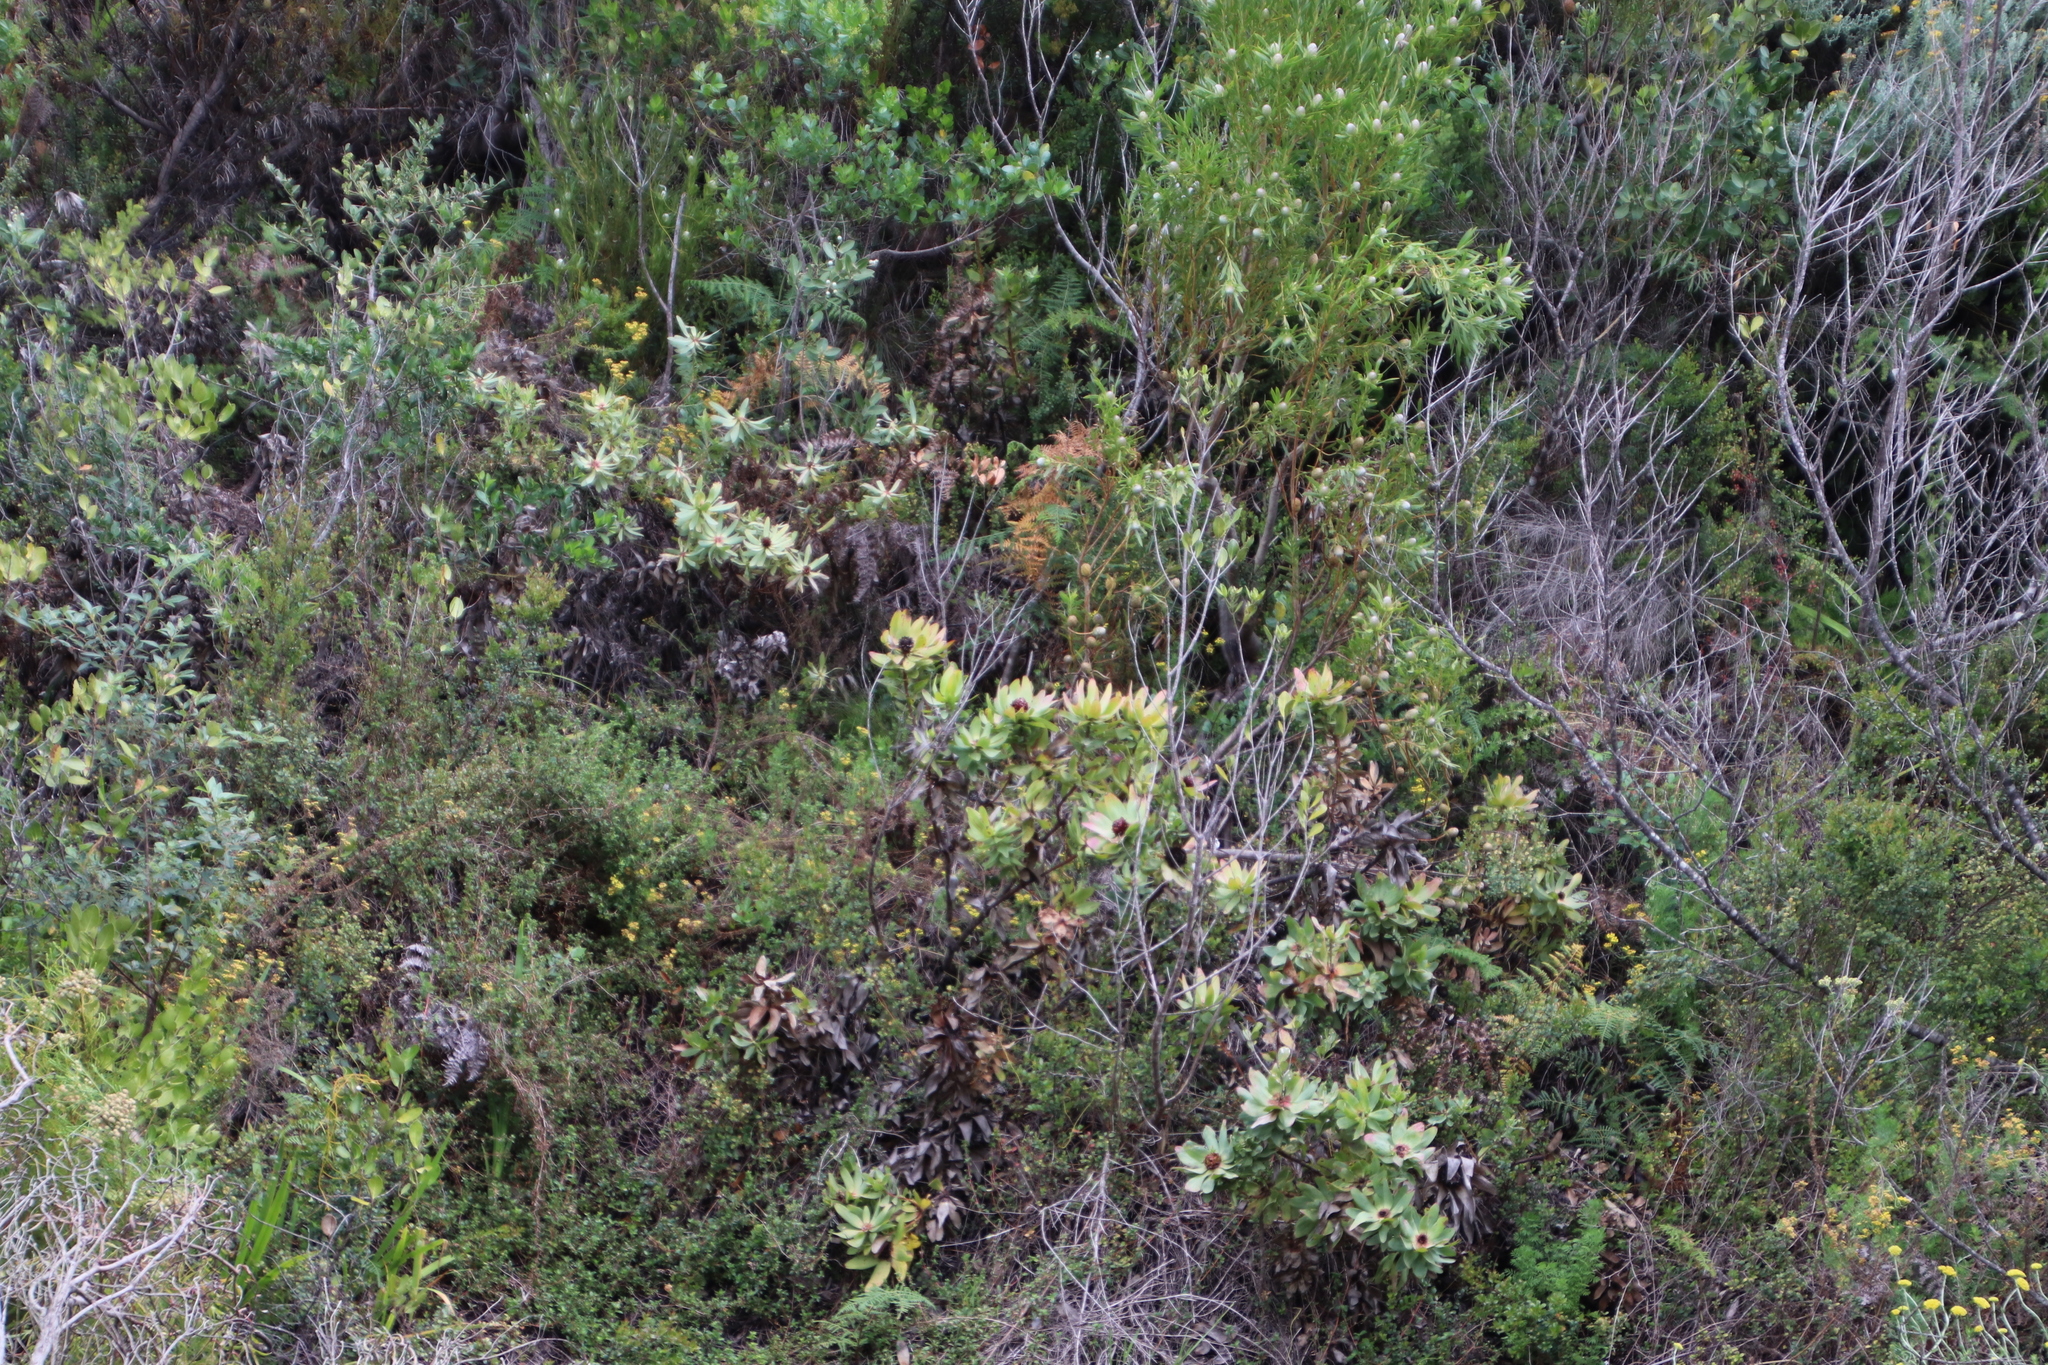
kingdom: Plantae
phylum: Tracheophyta
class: Magnoliopsida
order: Proteales
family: Proteaceae
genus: Leucadendron
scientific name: Leucadendron tinctum
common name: Spicy conebush
